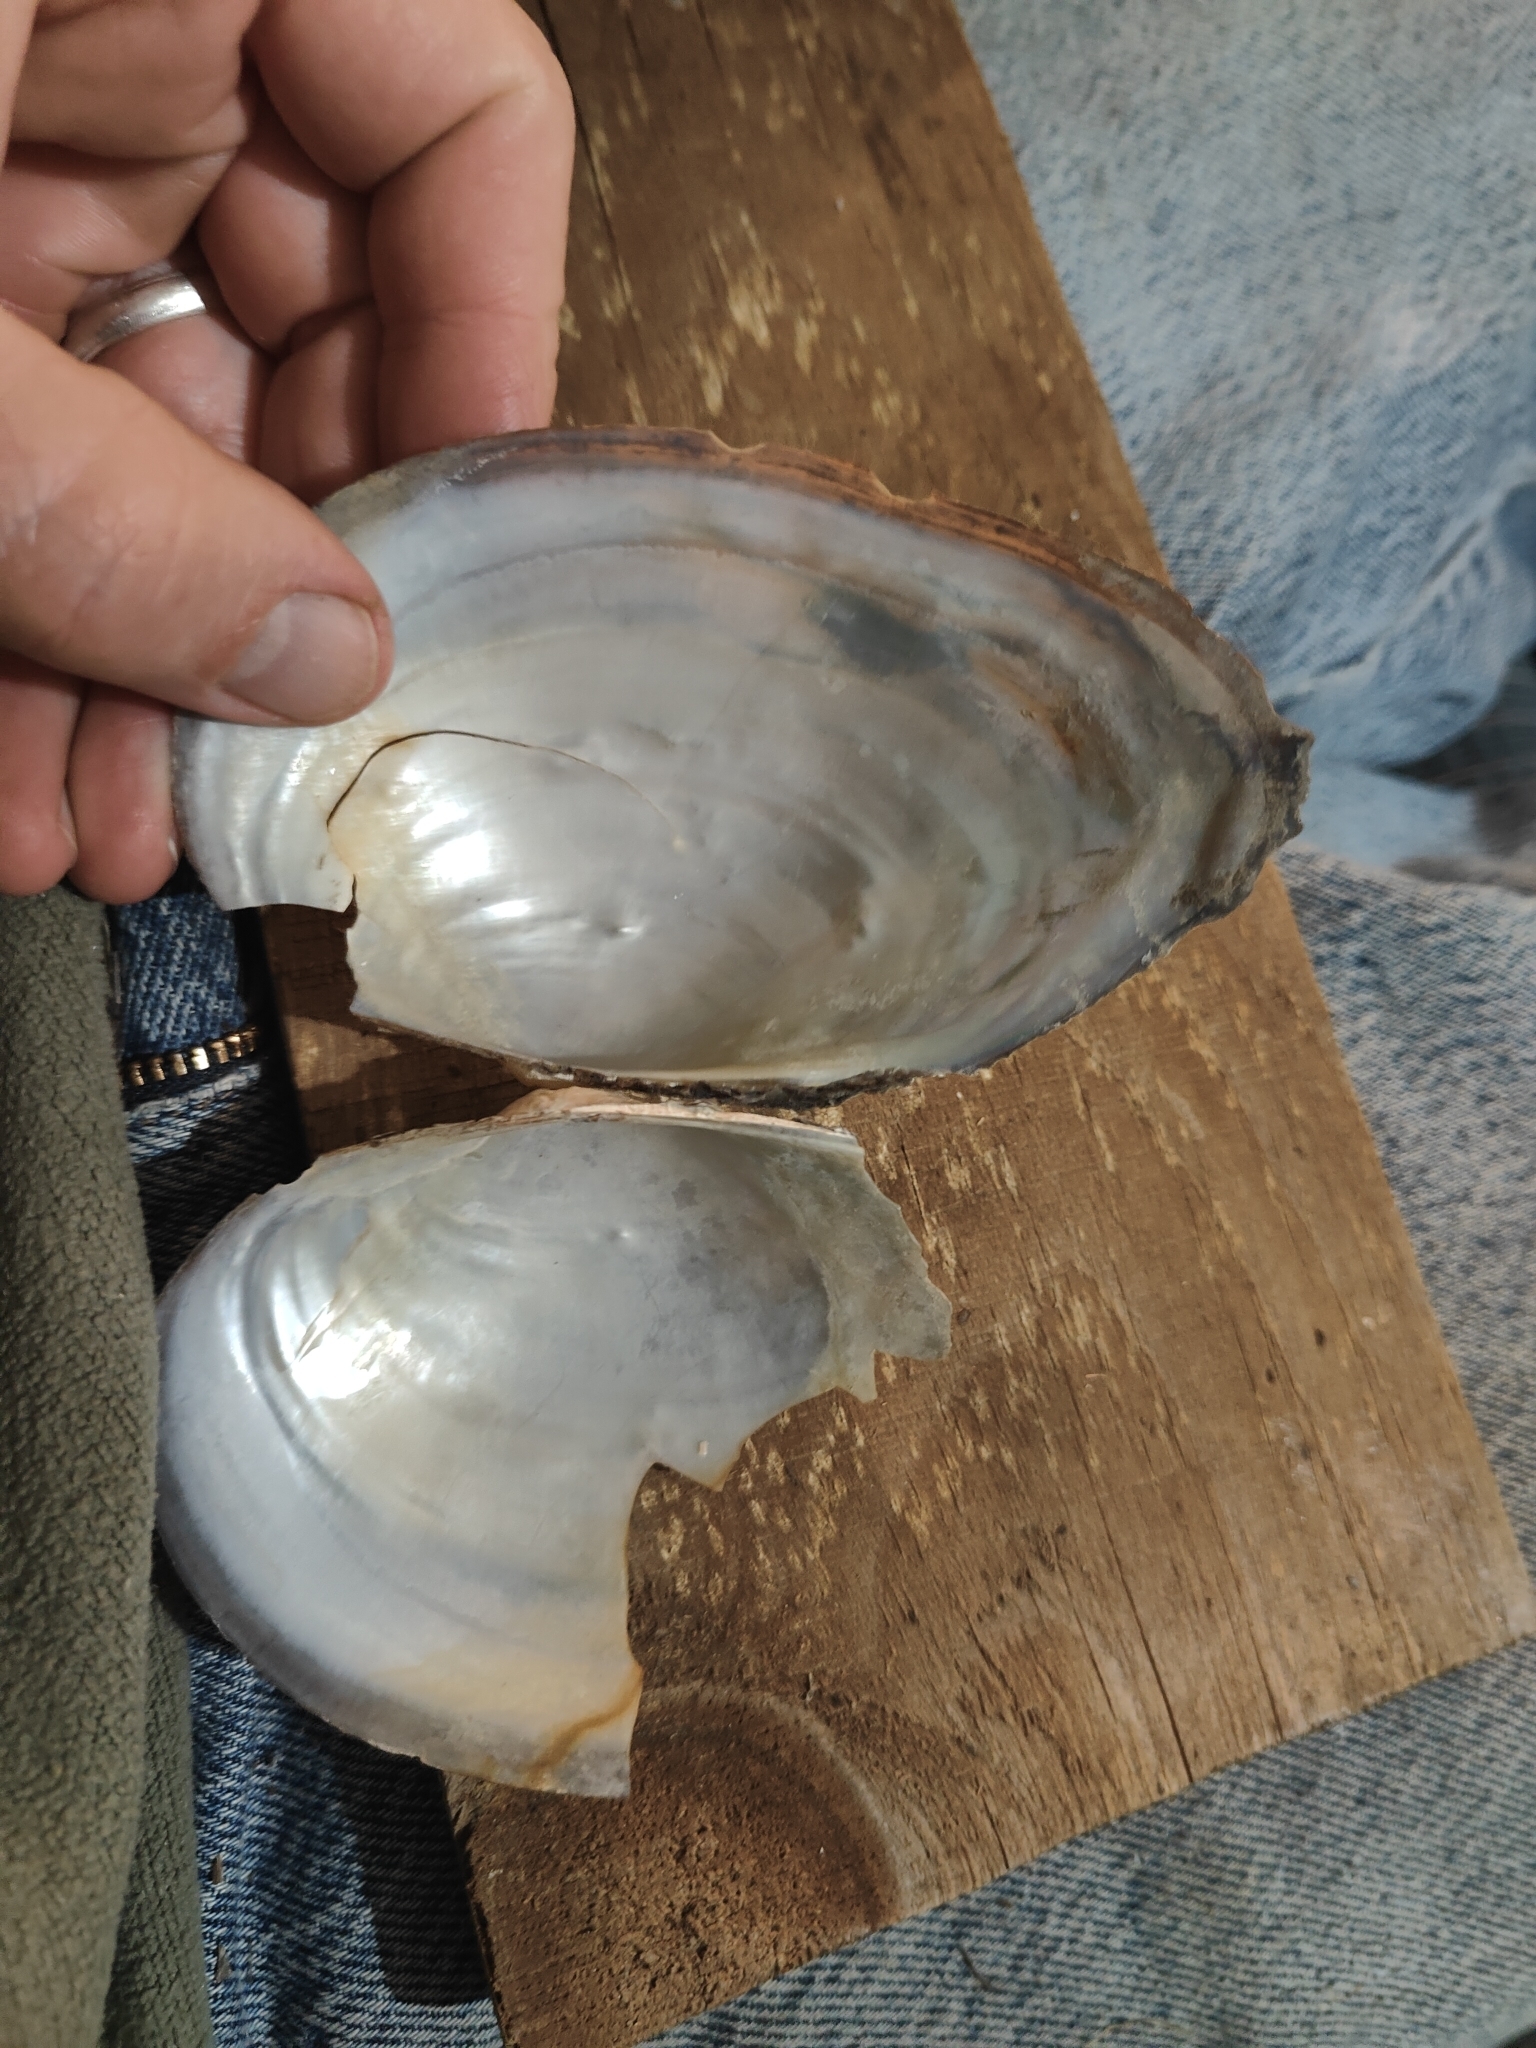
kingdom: Animalia
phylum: Mollusca
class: Bivalvia
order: Unionida
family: Unionidae
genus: Pyganodon
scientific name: Pyganodon grandis
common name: Giant floater
